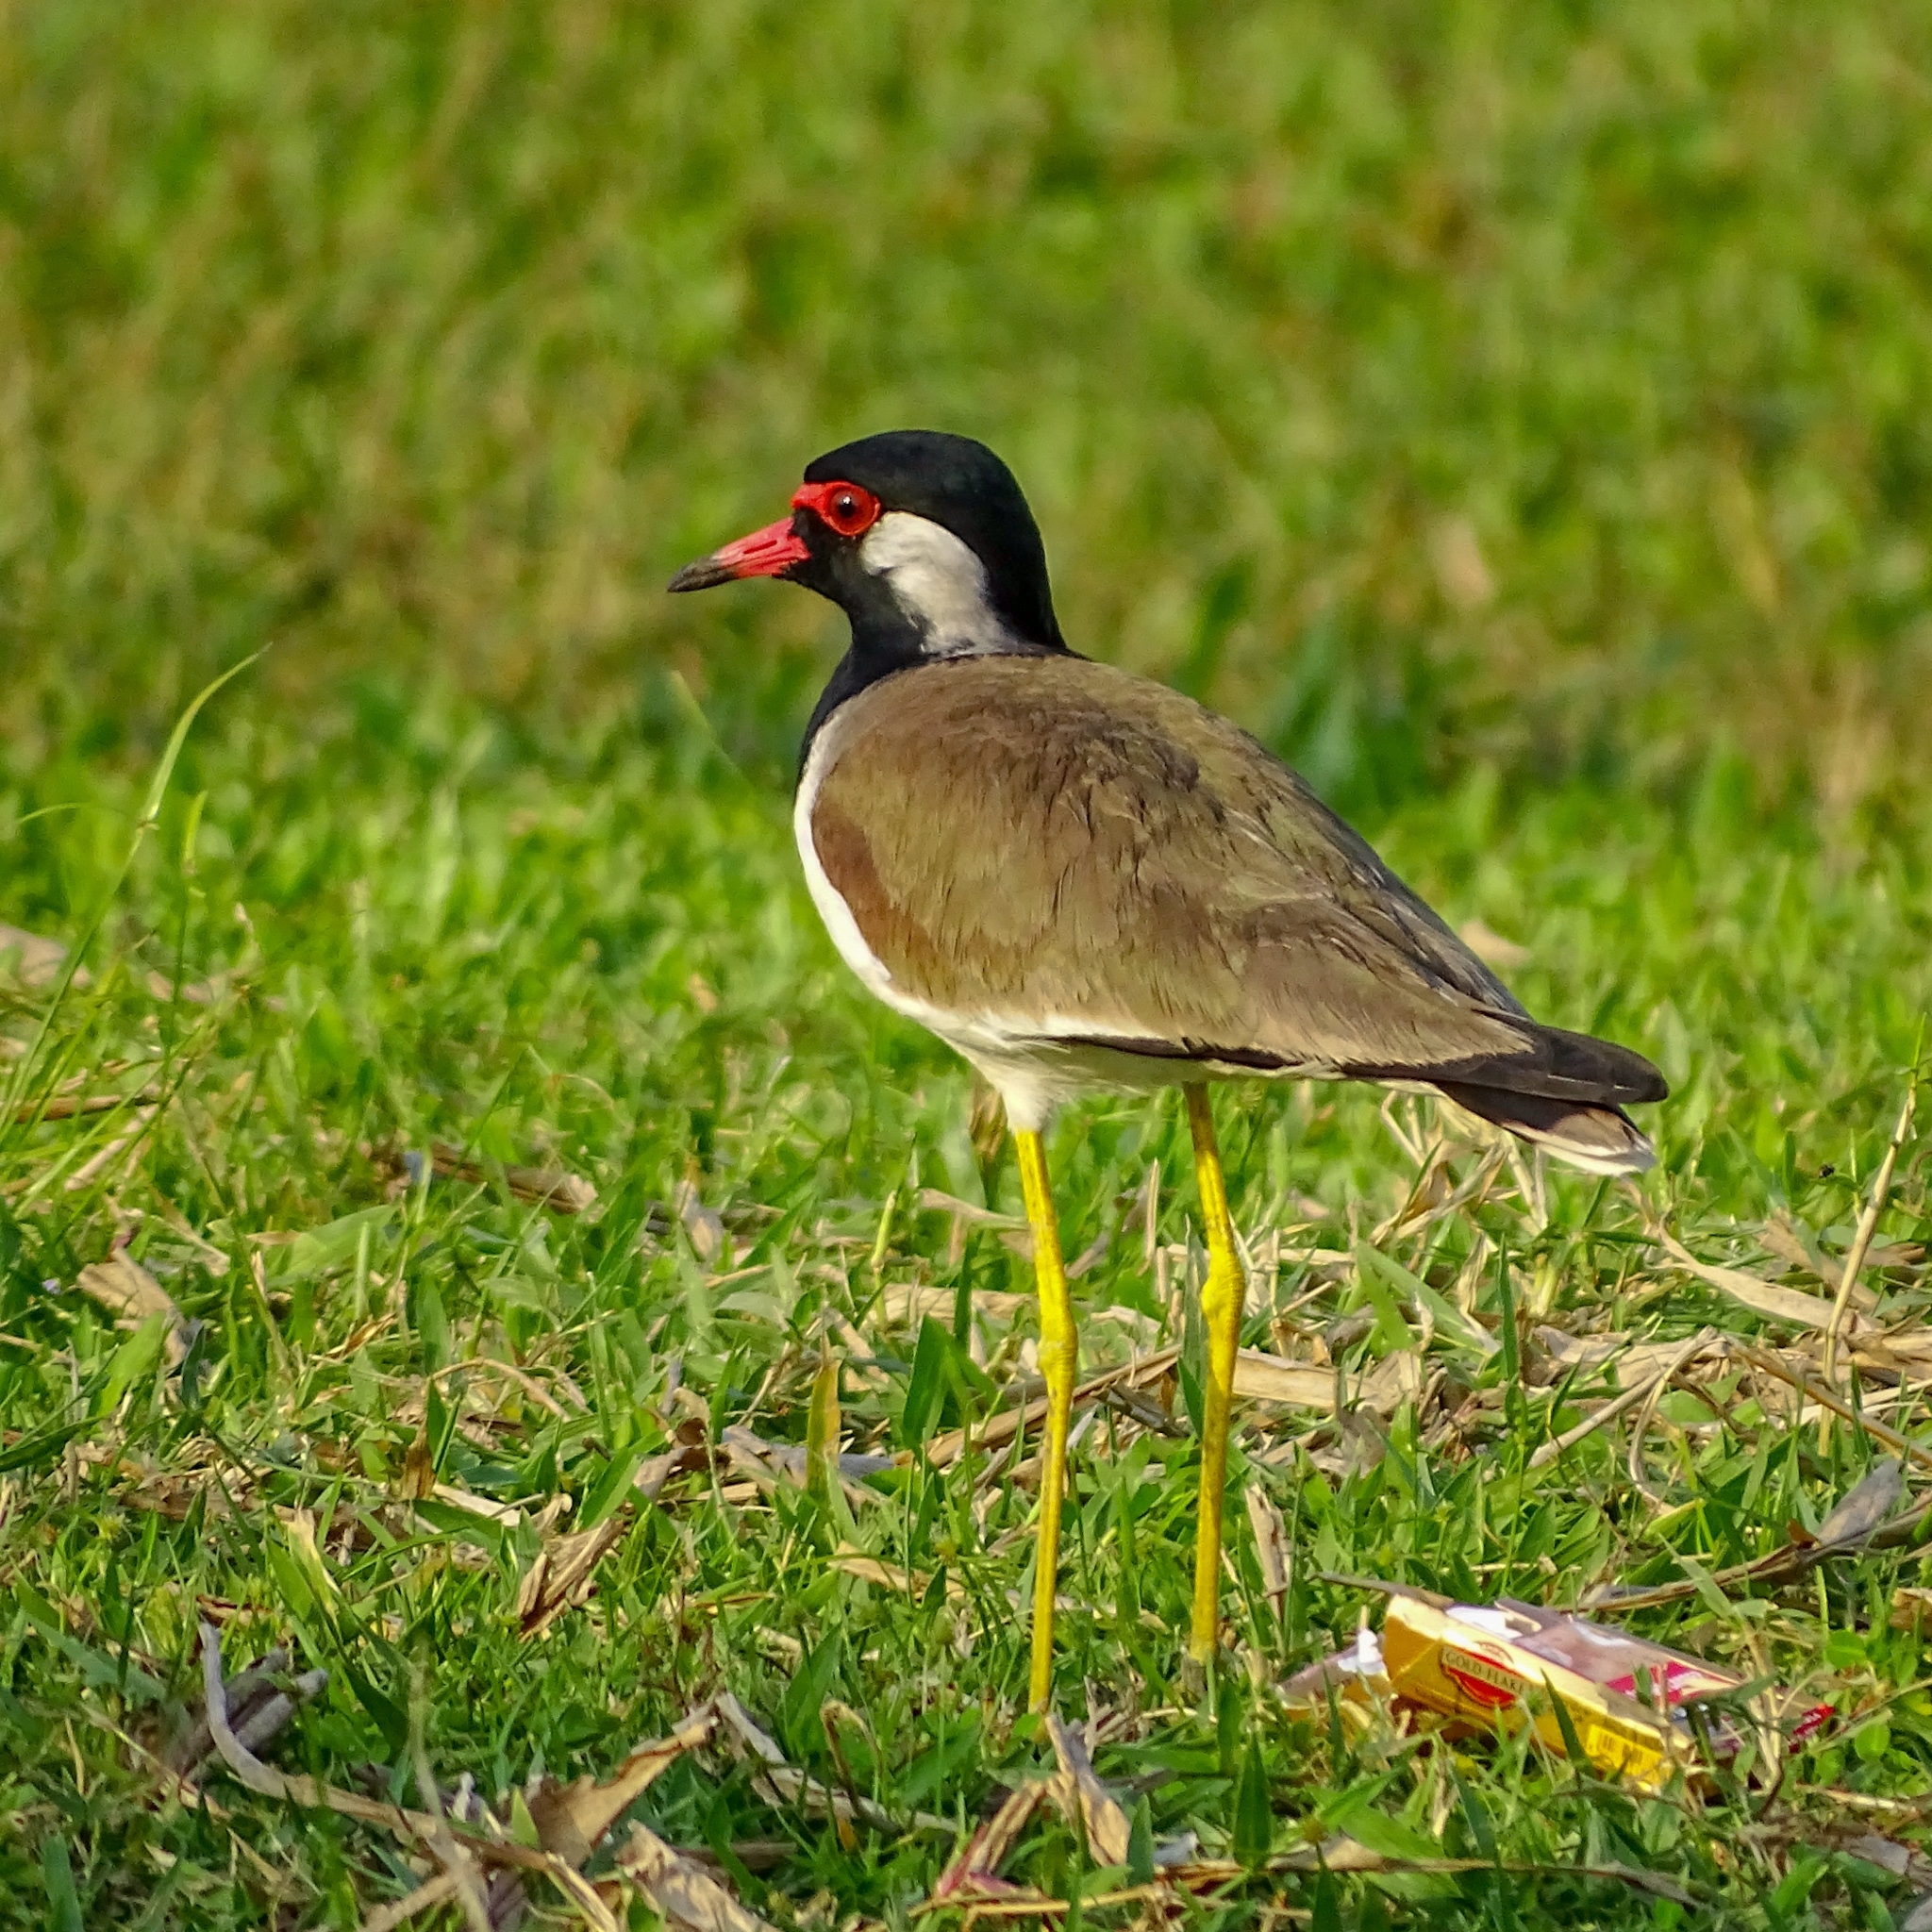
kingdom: Animalia
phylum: Chordata
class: Aves
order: Charadriiformes
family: Charadriidae
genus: Vanellus
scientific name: Vanellus indicus
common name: Red-wattled lapwing
